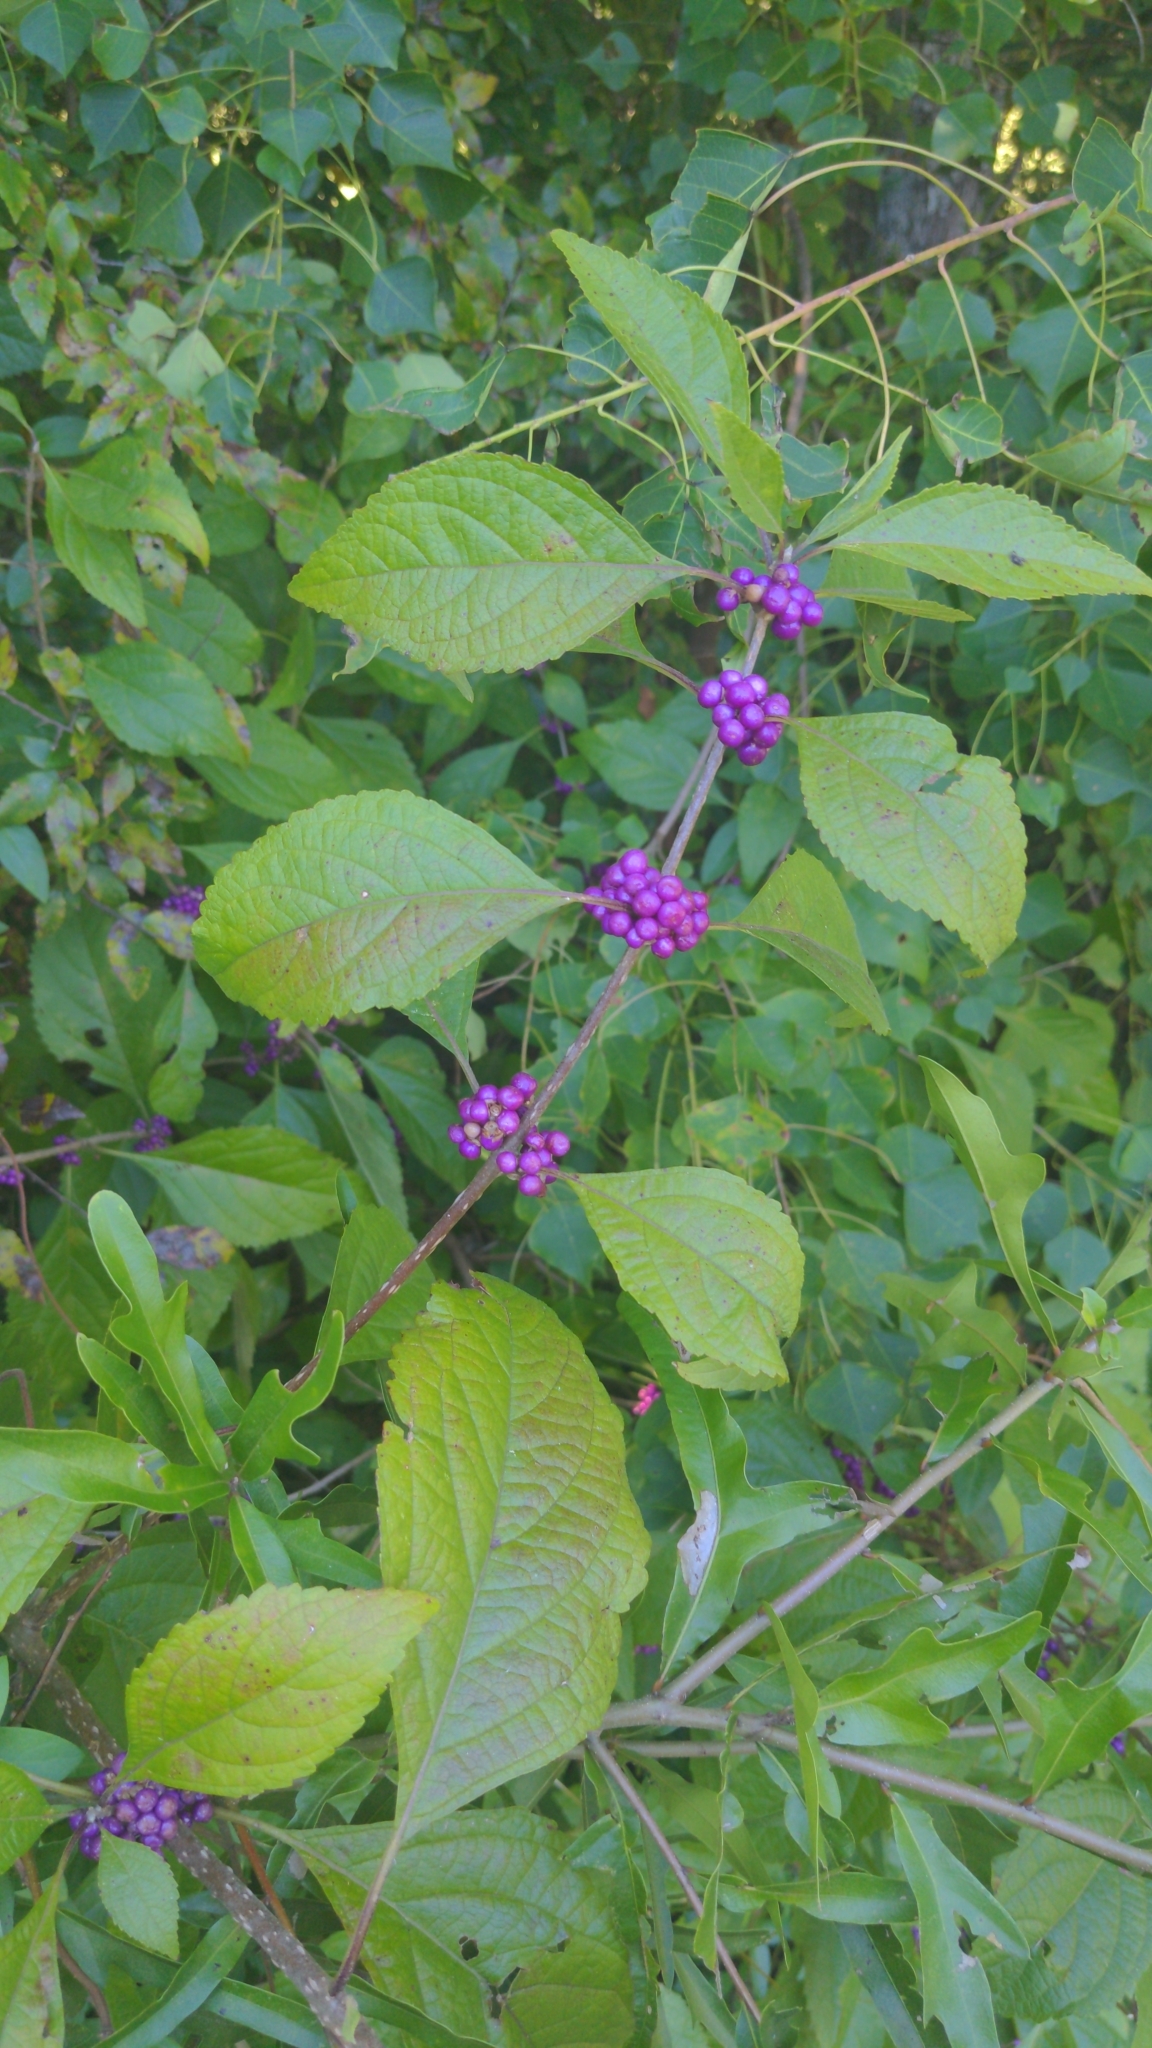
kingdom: Plantae
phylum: Tracheophyta
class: Magnoliopsida
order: Lamiales
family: Lamiaceae
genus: Callicarpa
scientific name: Callicarpa americana
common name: American beautyberry
